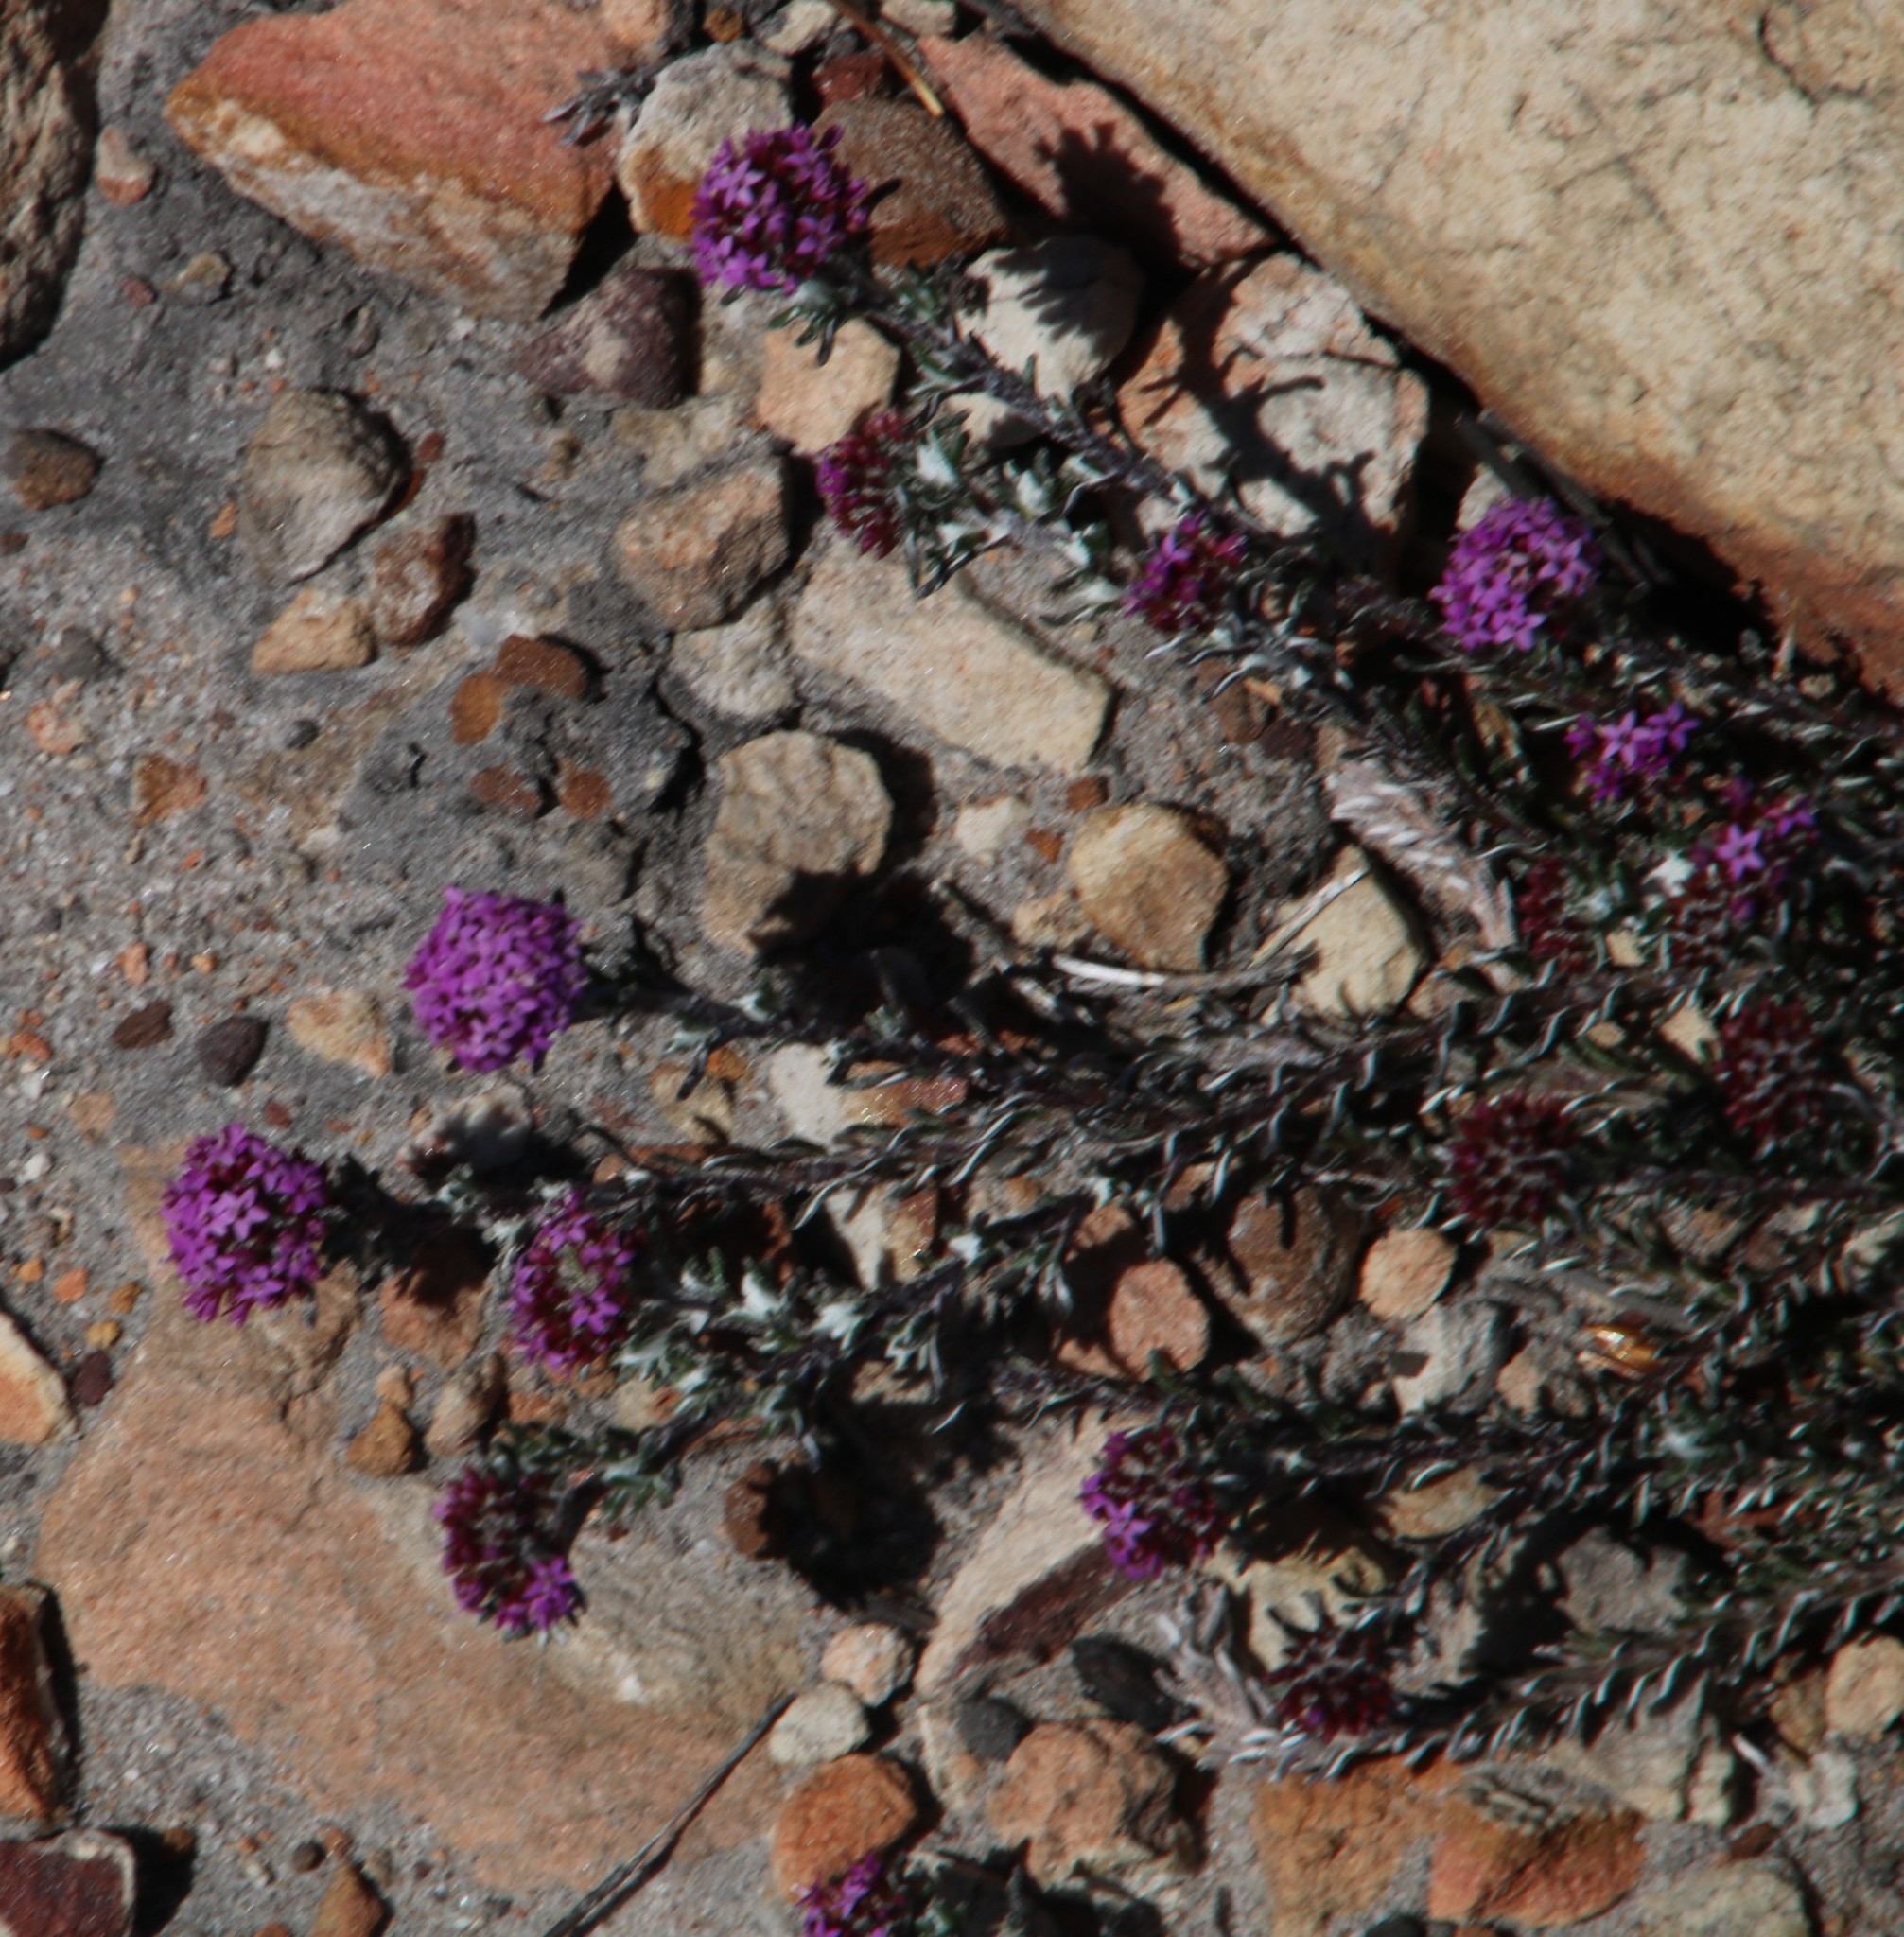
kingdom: Plantae
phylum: Tracheophyta
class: Magnoliopsida
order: Asterales
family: Asteraceae
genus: Stoebe
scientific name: Stoebe montana
